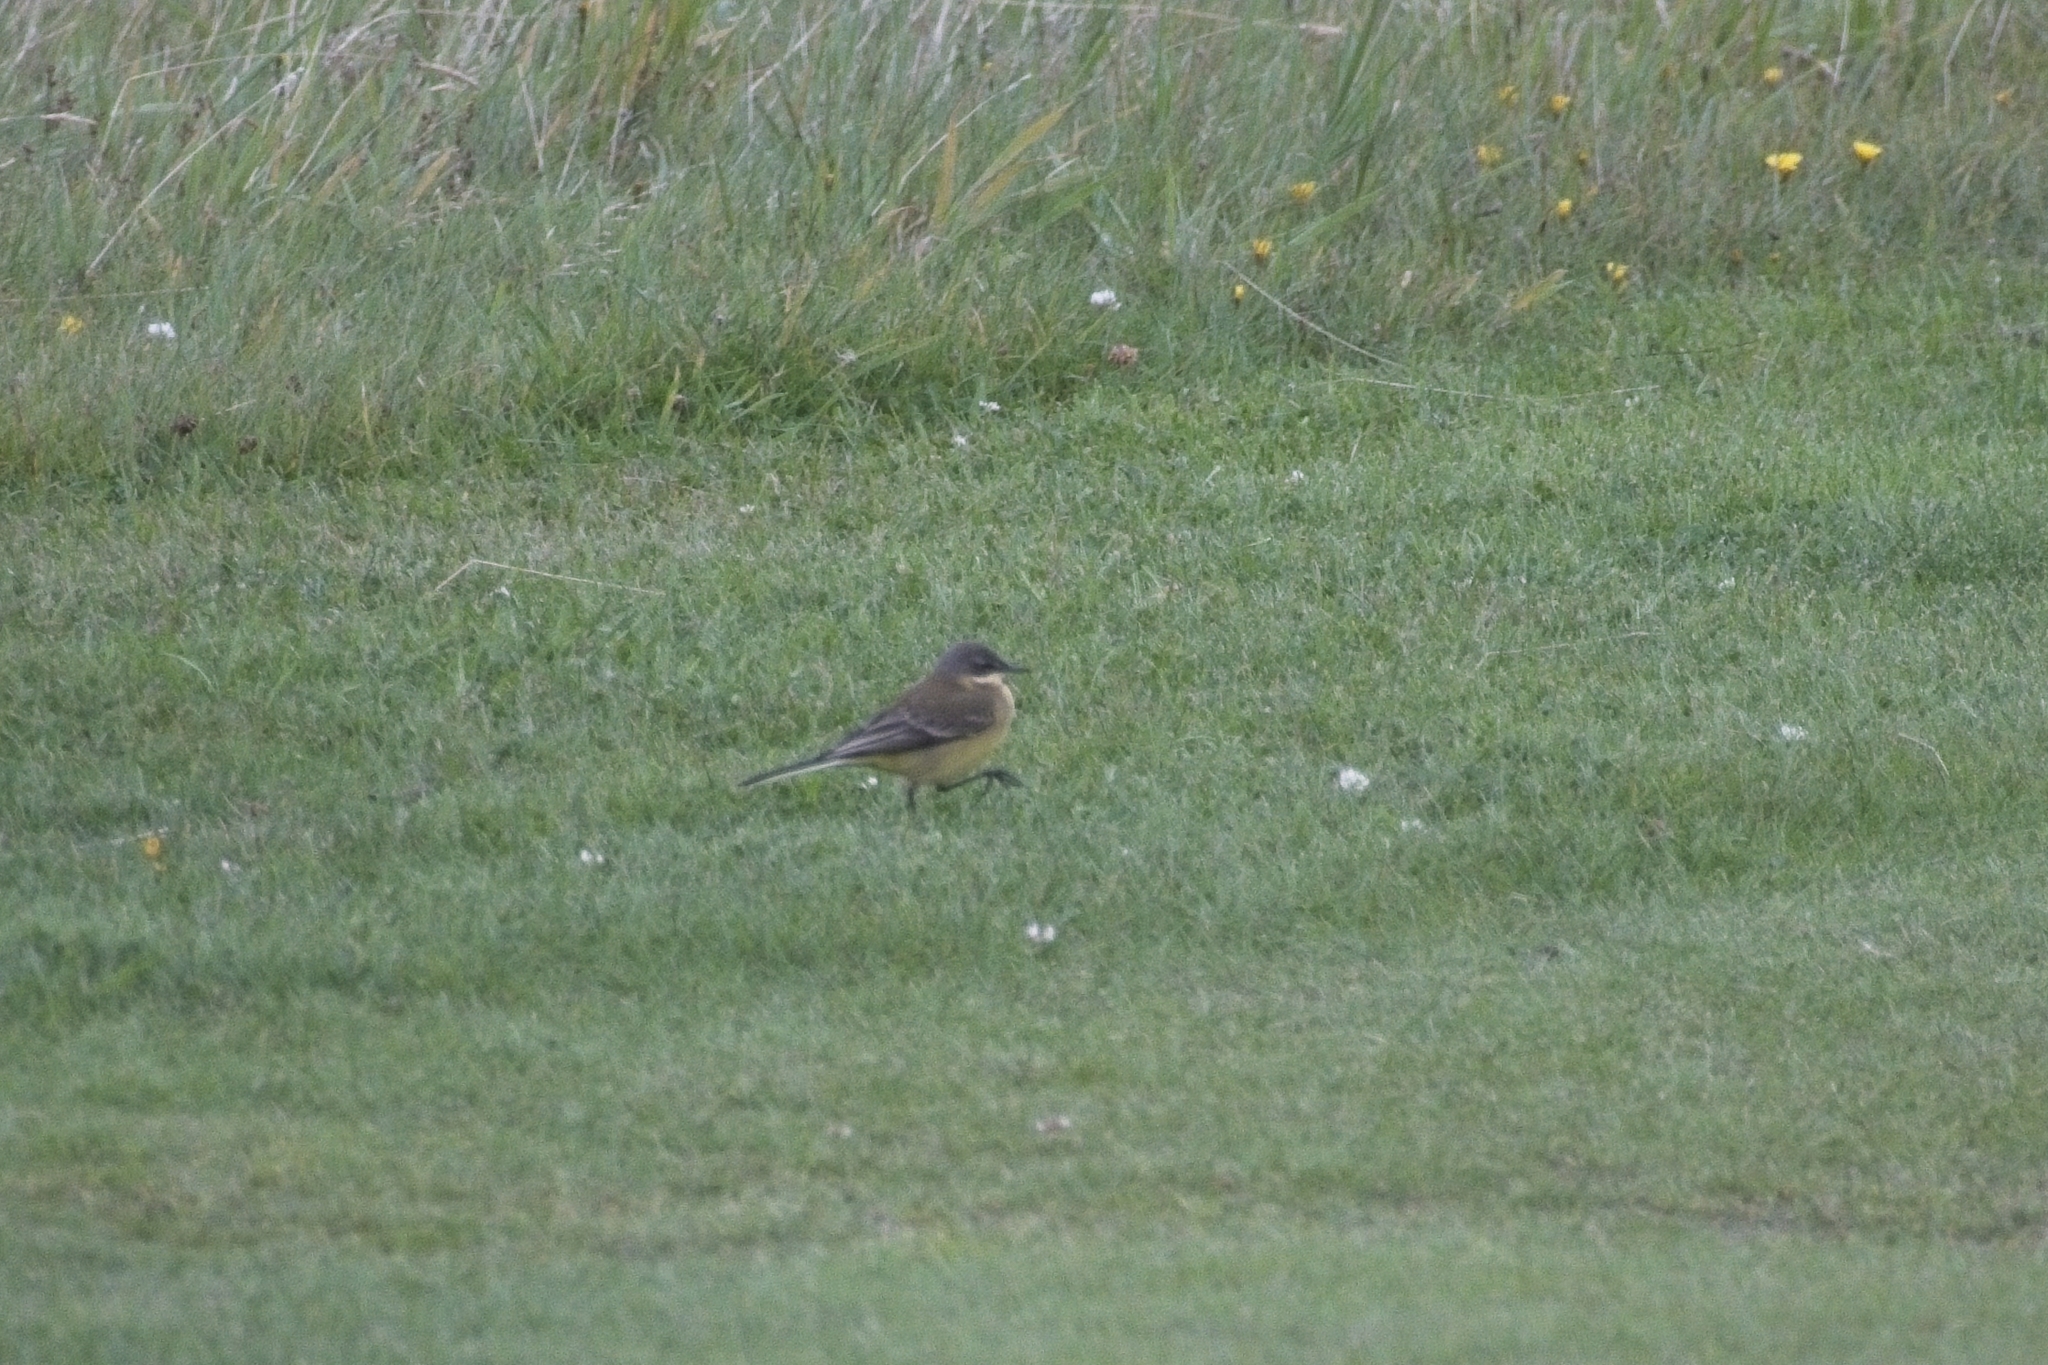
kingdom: Animalia
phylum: Chordata
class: Aves
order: Passeriformes
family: Motacillidae
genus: Motacilla
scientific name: Motacilla flava
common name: Western yellow wagtail
